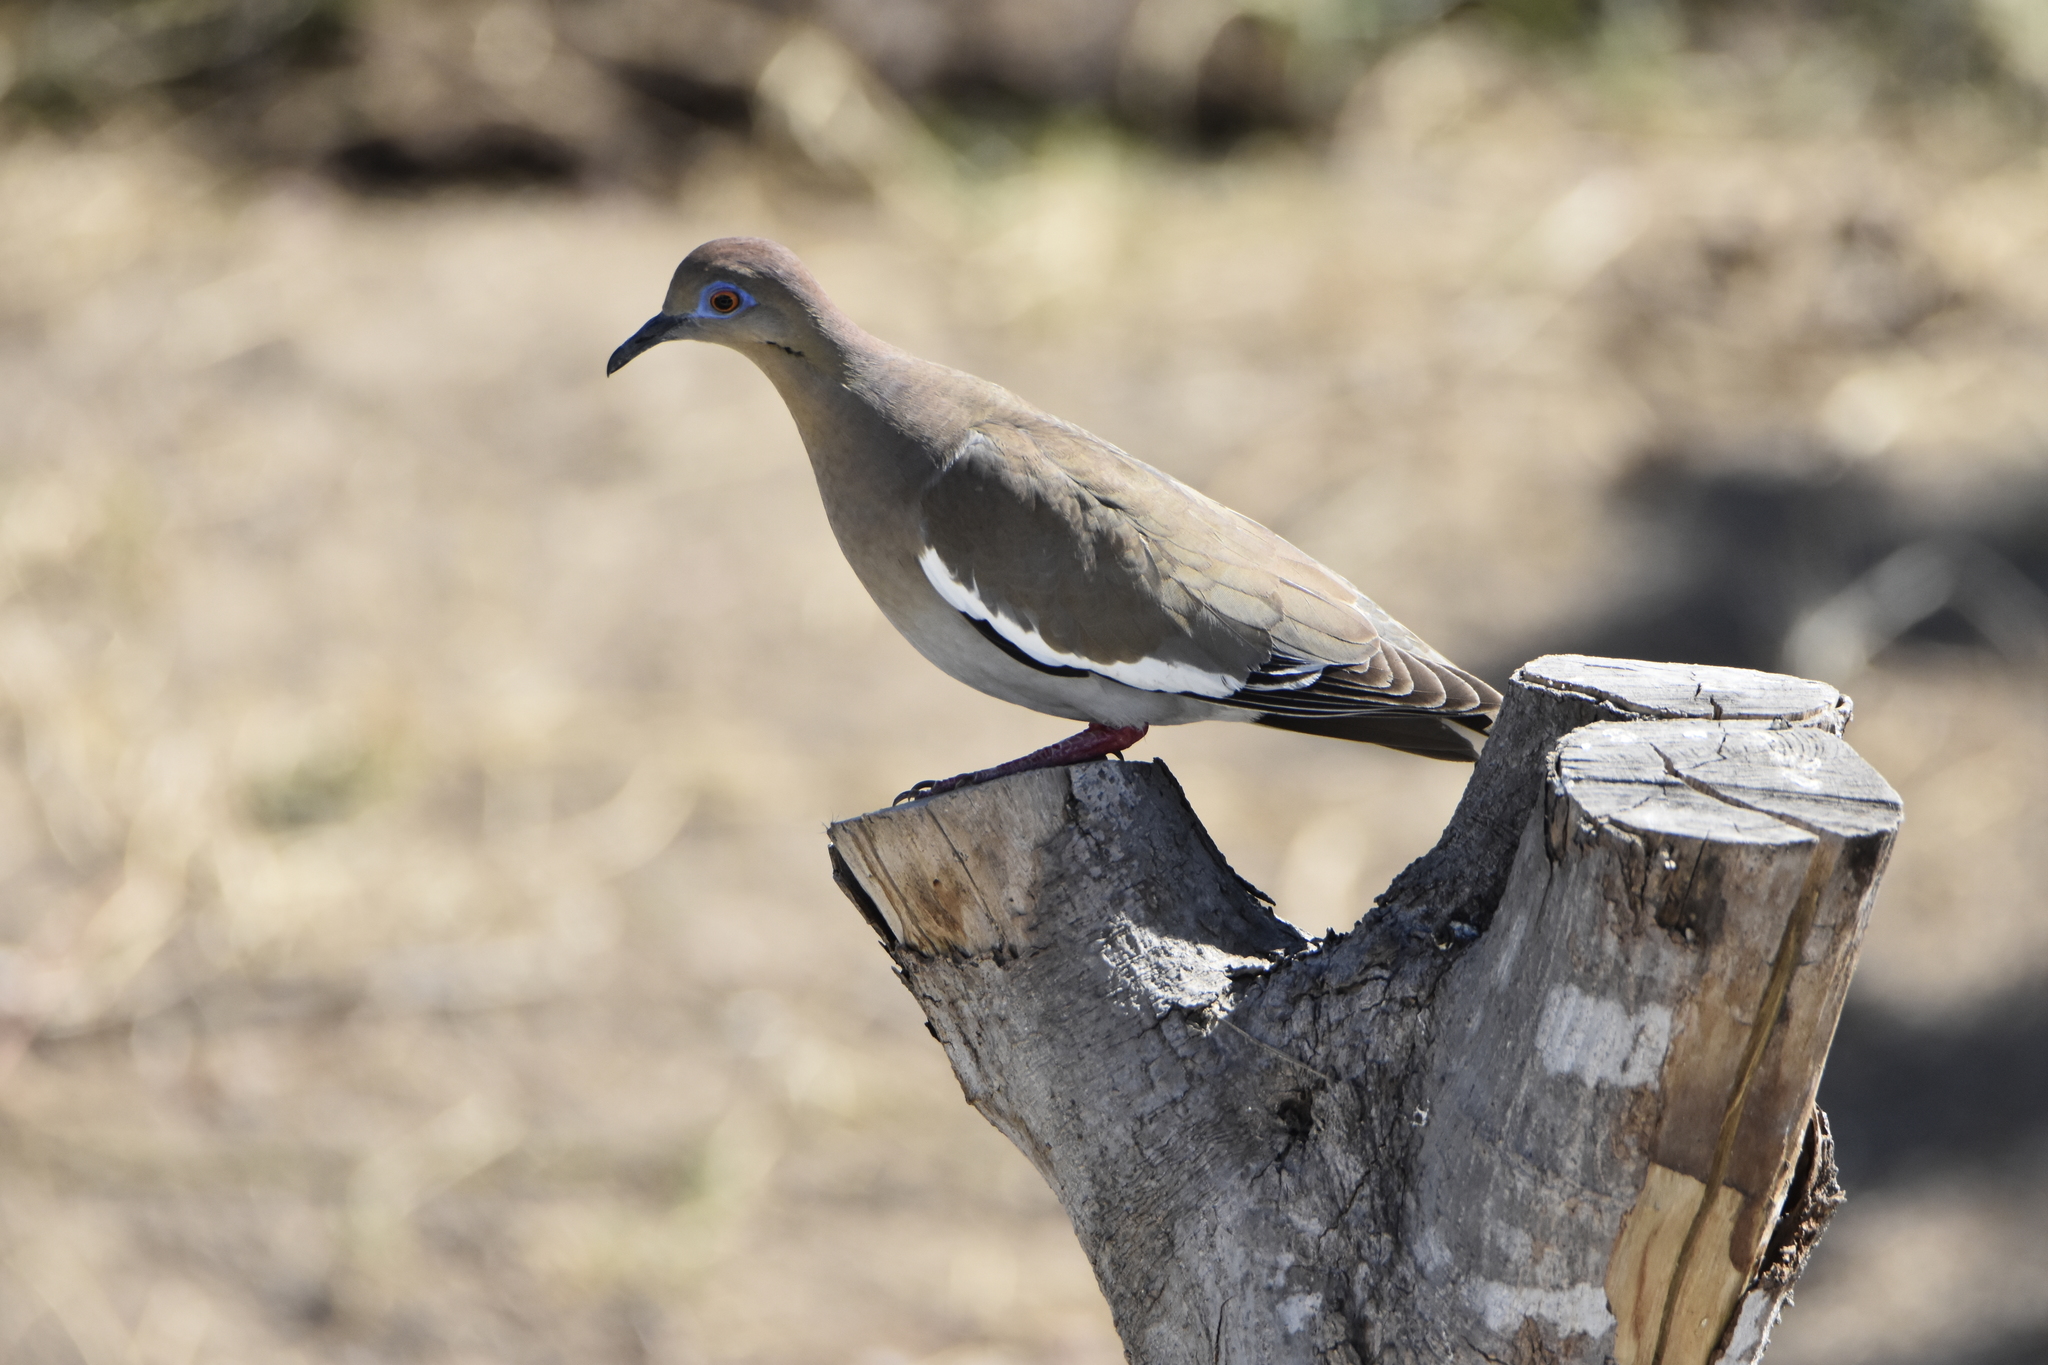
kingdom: Animalia
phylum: Chordata
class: Aves
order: Columbiformes
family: Columbidae
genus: Zenaida
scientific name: Zenaida asiatica
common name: White-winged dove
